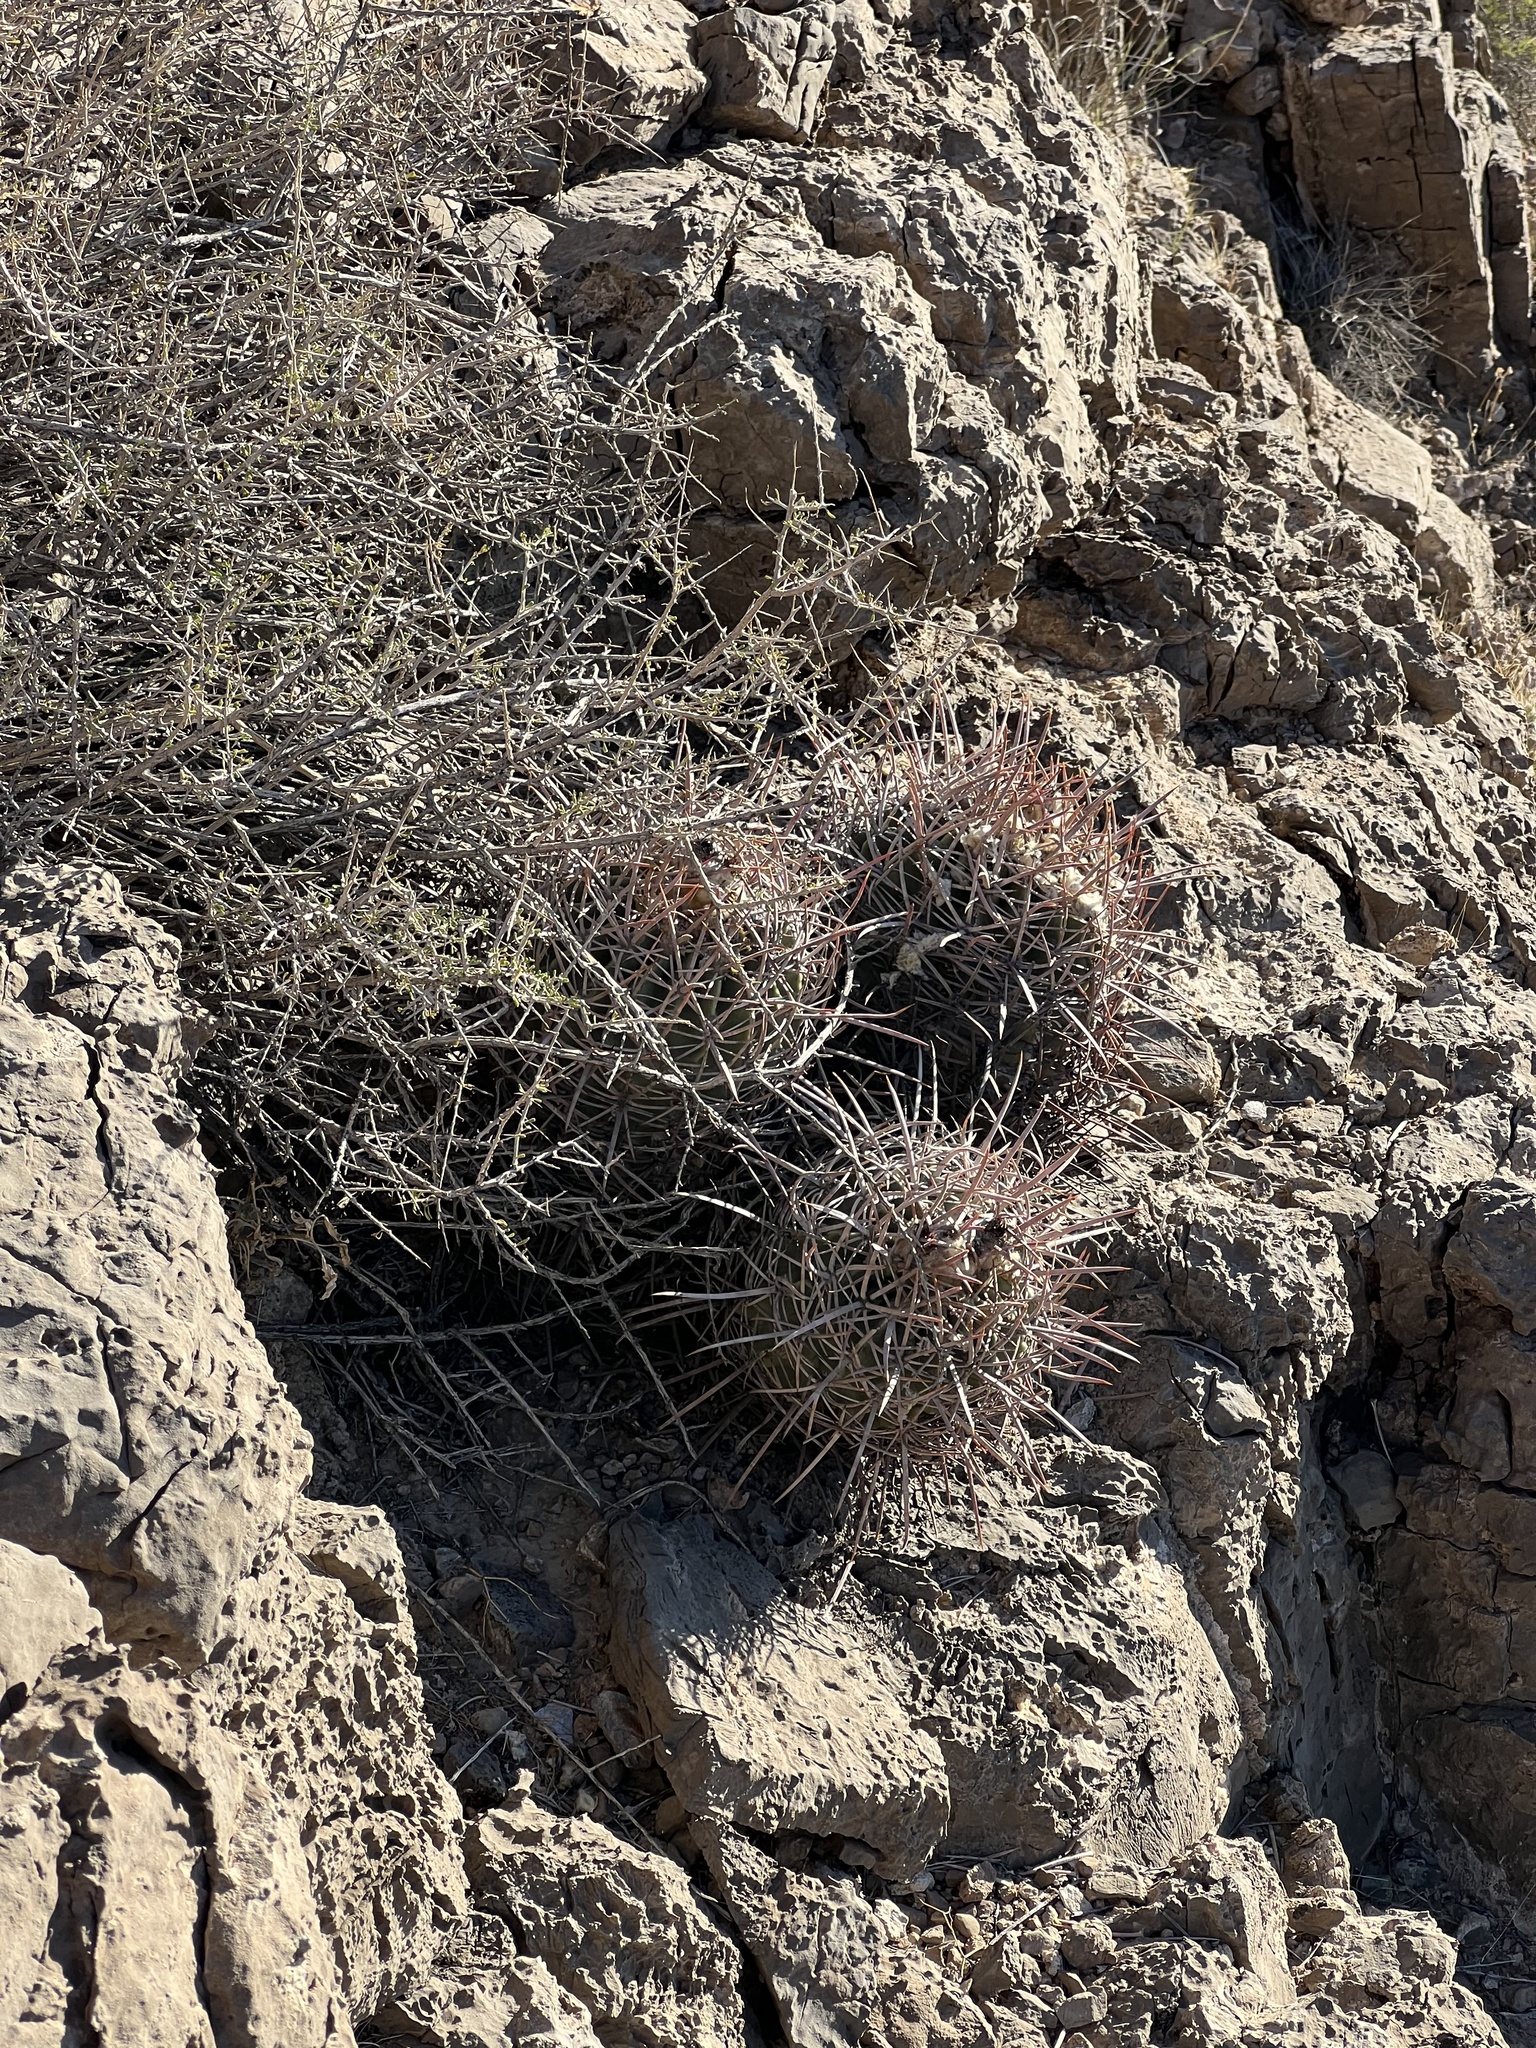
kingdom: Plantae
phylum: Tracheophyta
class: Magnoliopsida
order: Caryophyllales
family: Cactaceae
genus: Echinocactus
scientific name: Echinocactus polycephalus
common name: Cottontop cactus
